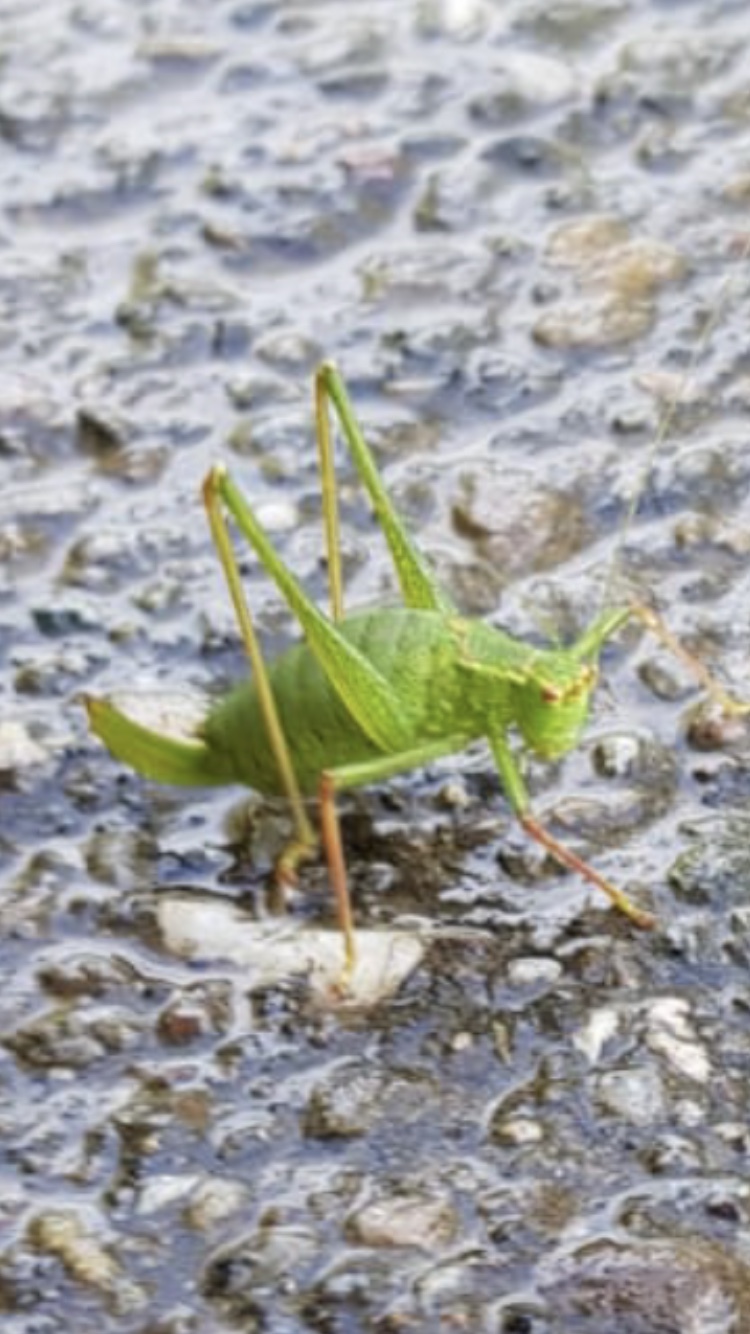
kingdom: Animalia
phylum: Arthropoda
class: Insecta
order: Orthoptera
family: Tettigoniidae
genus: Leptophyes
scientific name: Leptophyes punctatissima
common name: Speckled bush-cricket
